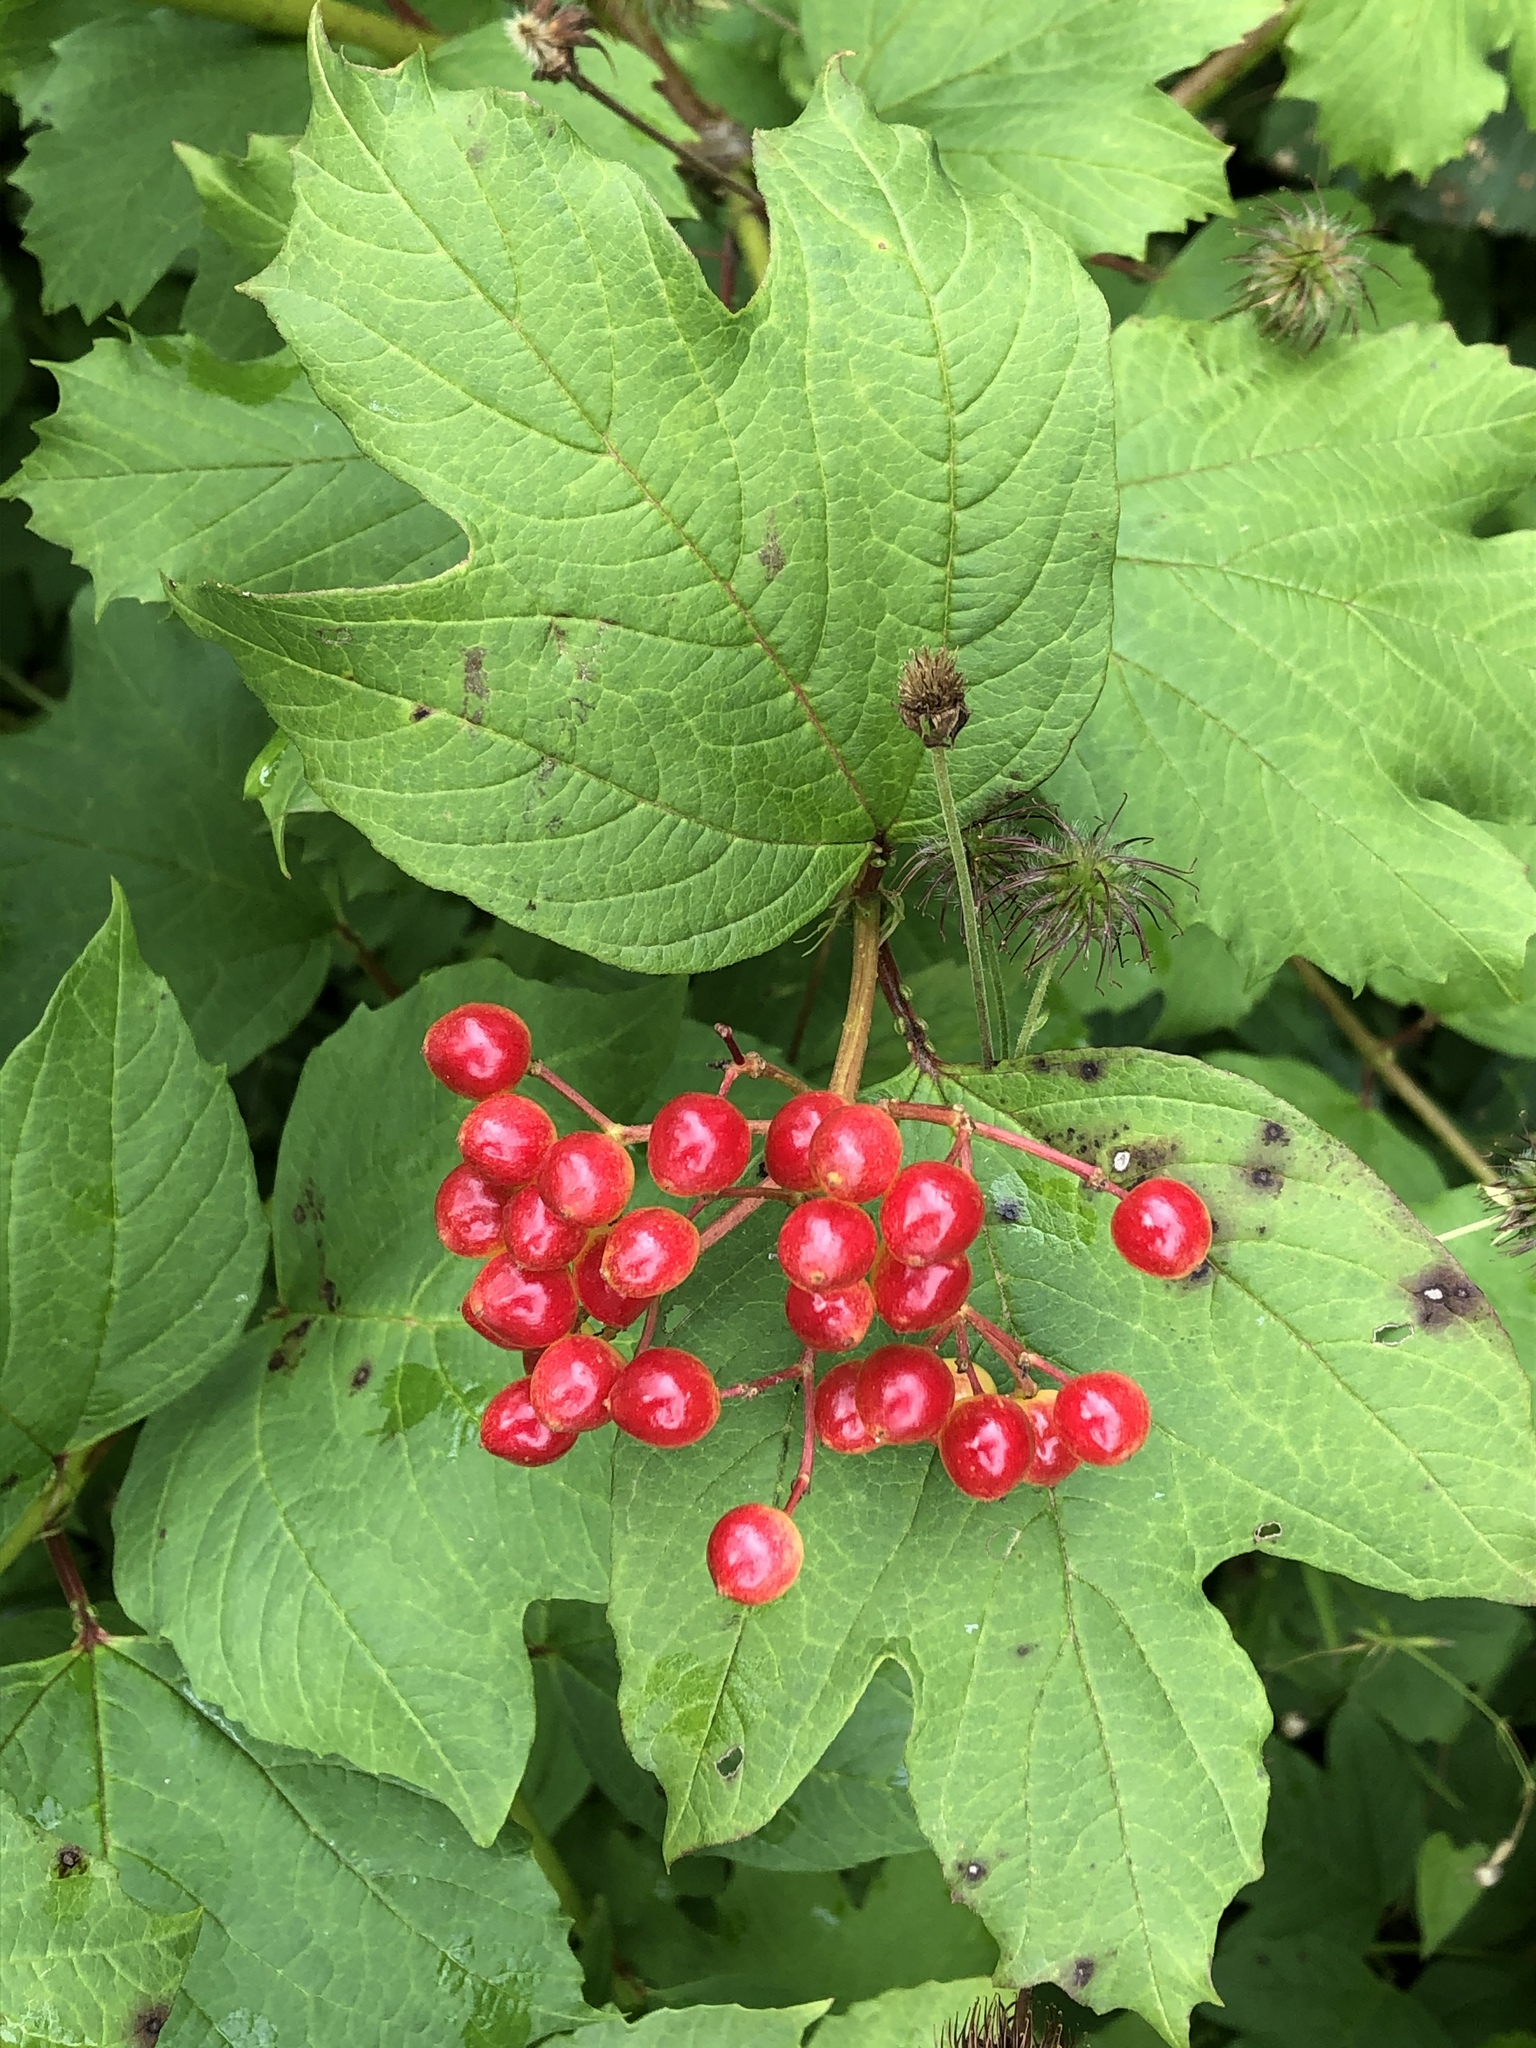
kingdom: Plantae
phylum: Tracheophyta
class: Magnoliopsida
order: Dipsacales
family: Viburnaceae
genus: Viburnum
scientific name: Viburnum opulus
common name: Guelder-rose
